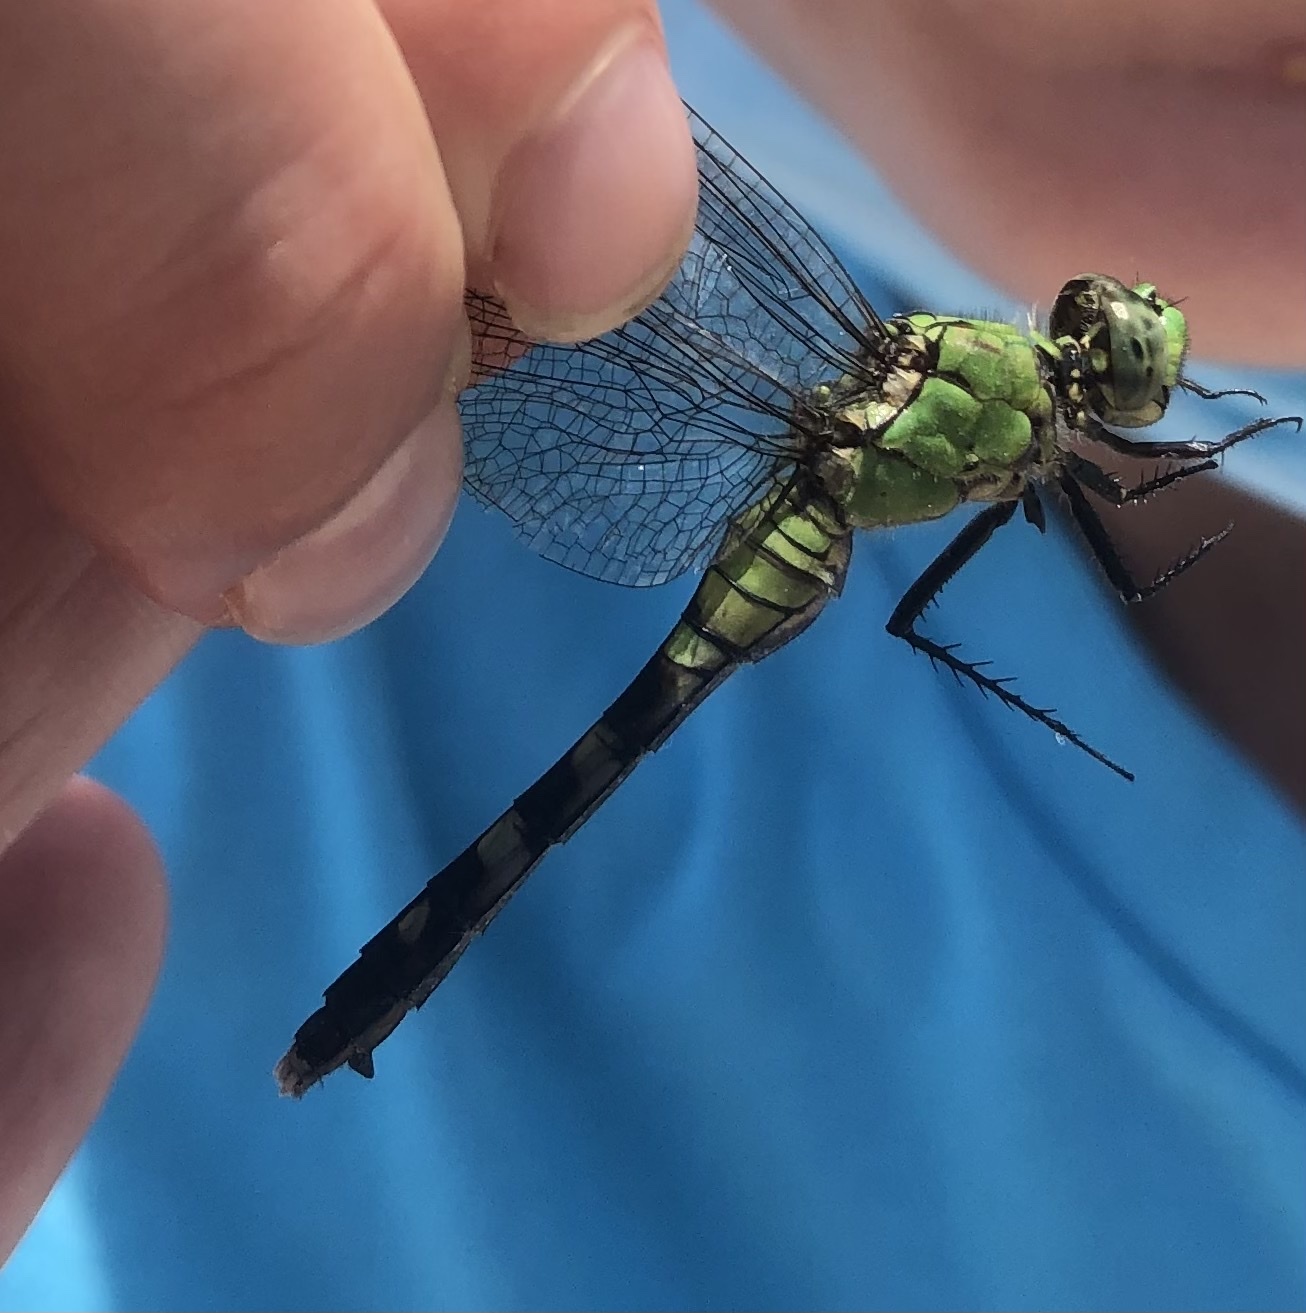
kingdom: Animalia
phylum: Arthropoda
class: Insecta
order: Odonata
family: Libellulidae
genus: Erythemis
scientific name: Erythemis simplicicollis
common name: Eastern pondhawk
